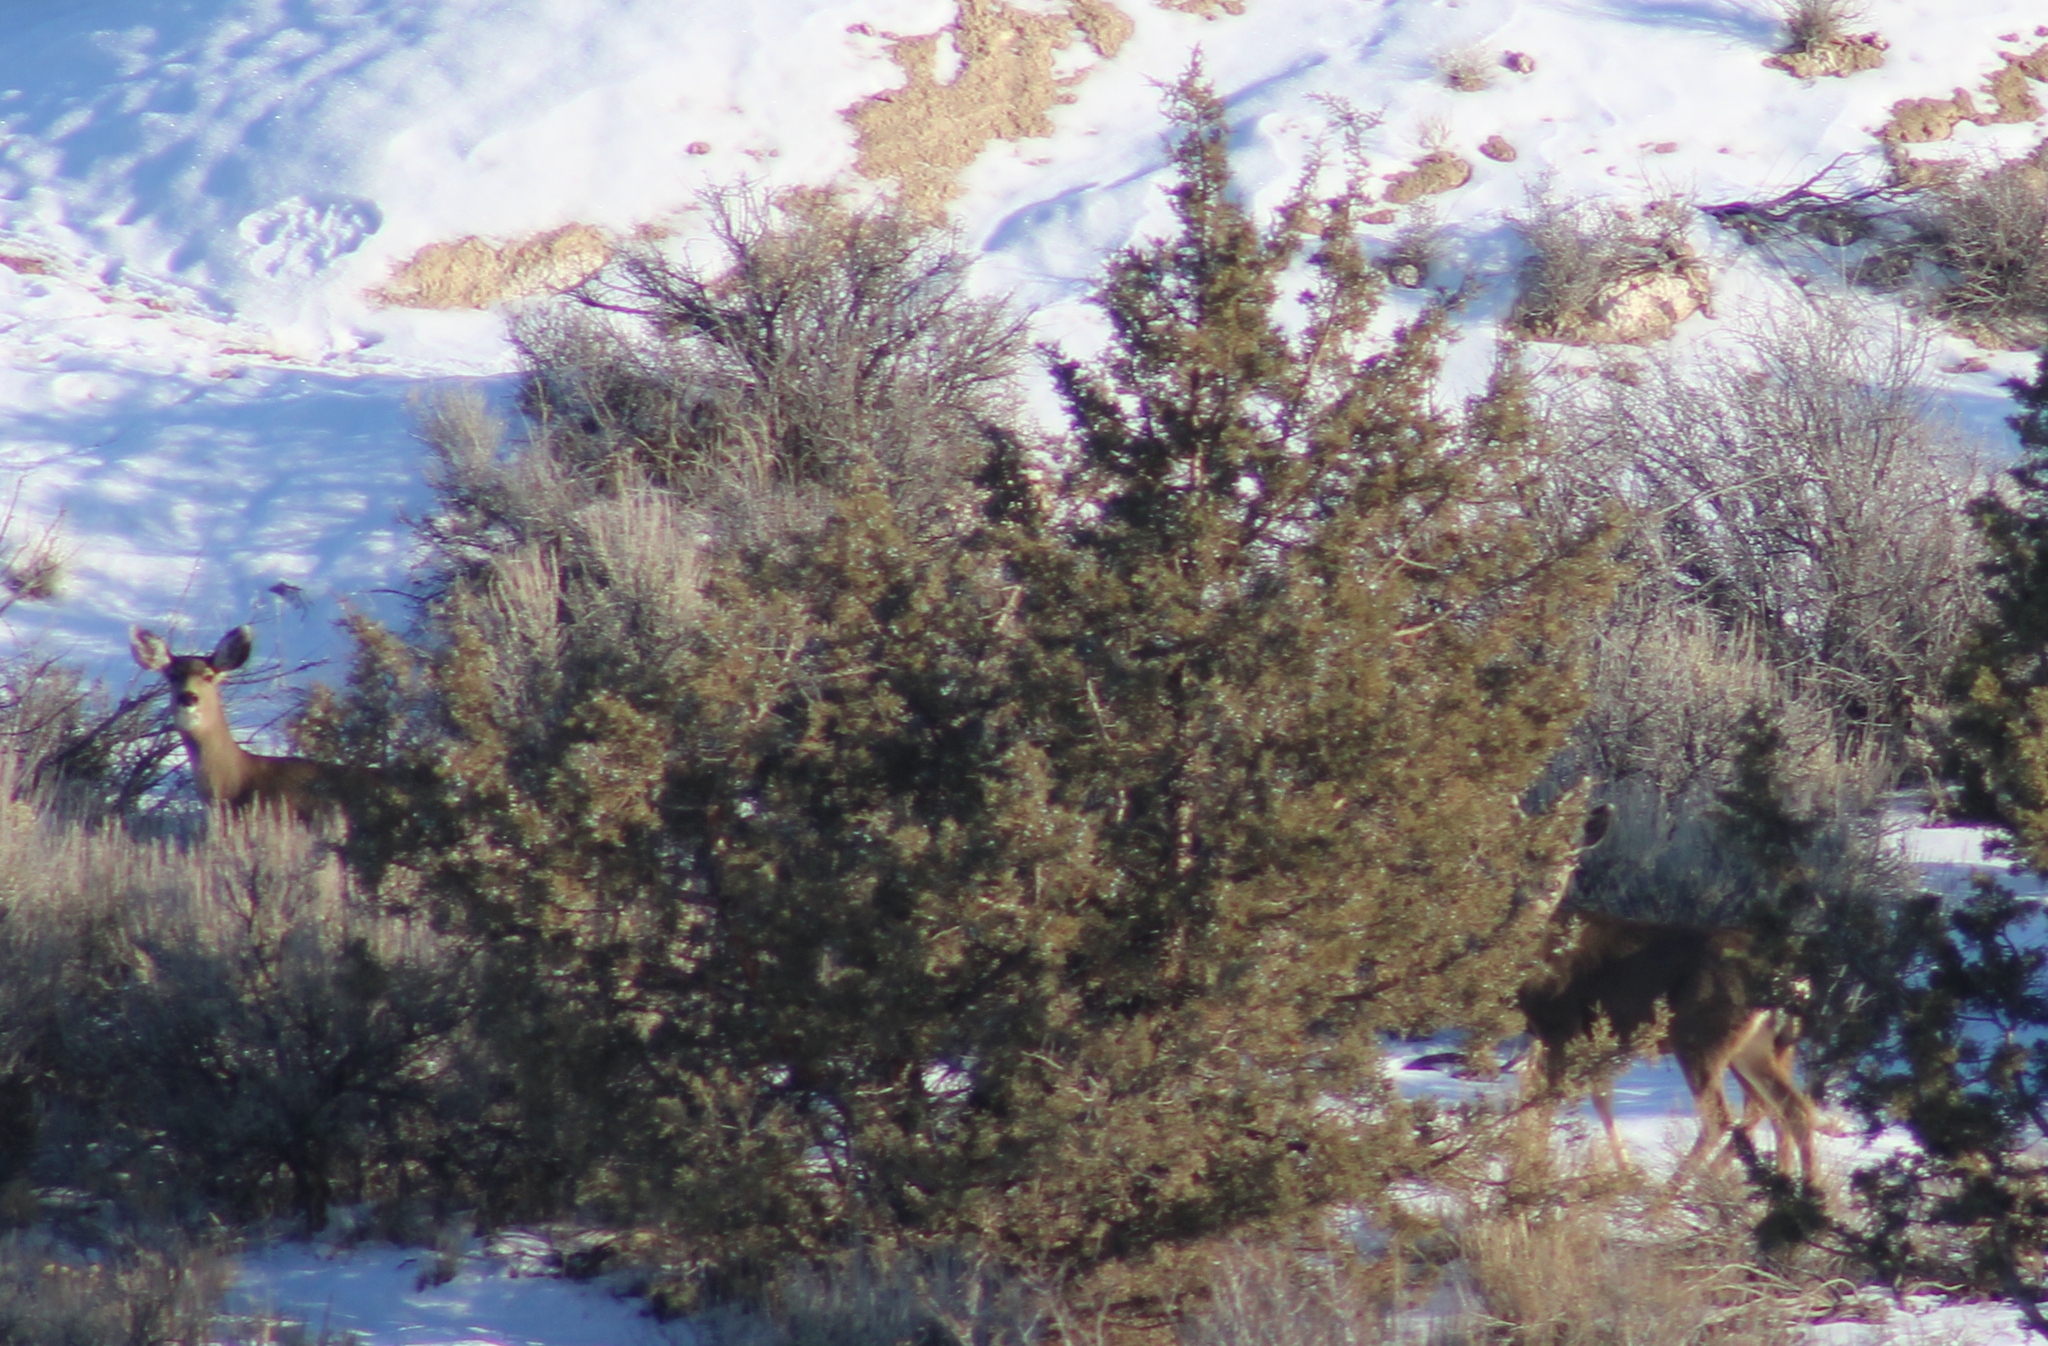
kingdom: Animalia
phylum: Chordata
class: Mammalia
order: Artiodactyla
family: Cervidae
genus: Odocoileus
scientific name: Odocoileus hemionus
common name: Mule deer
